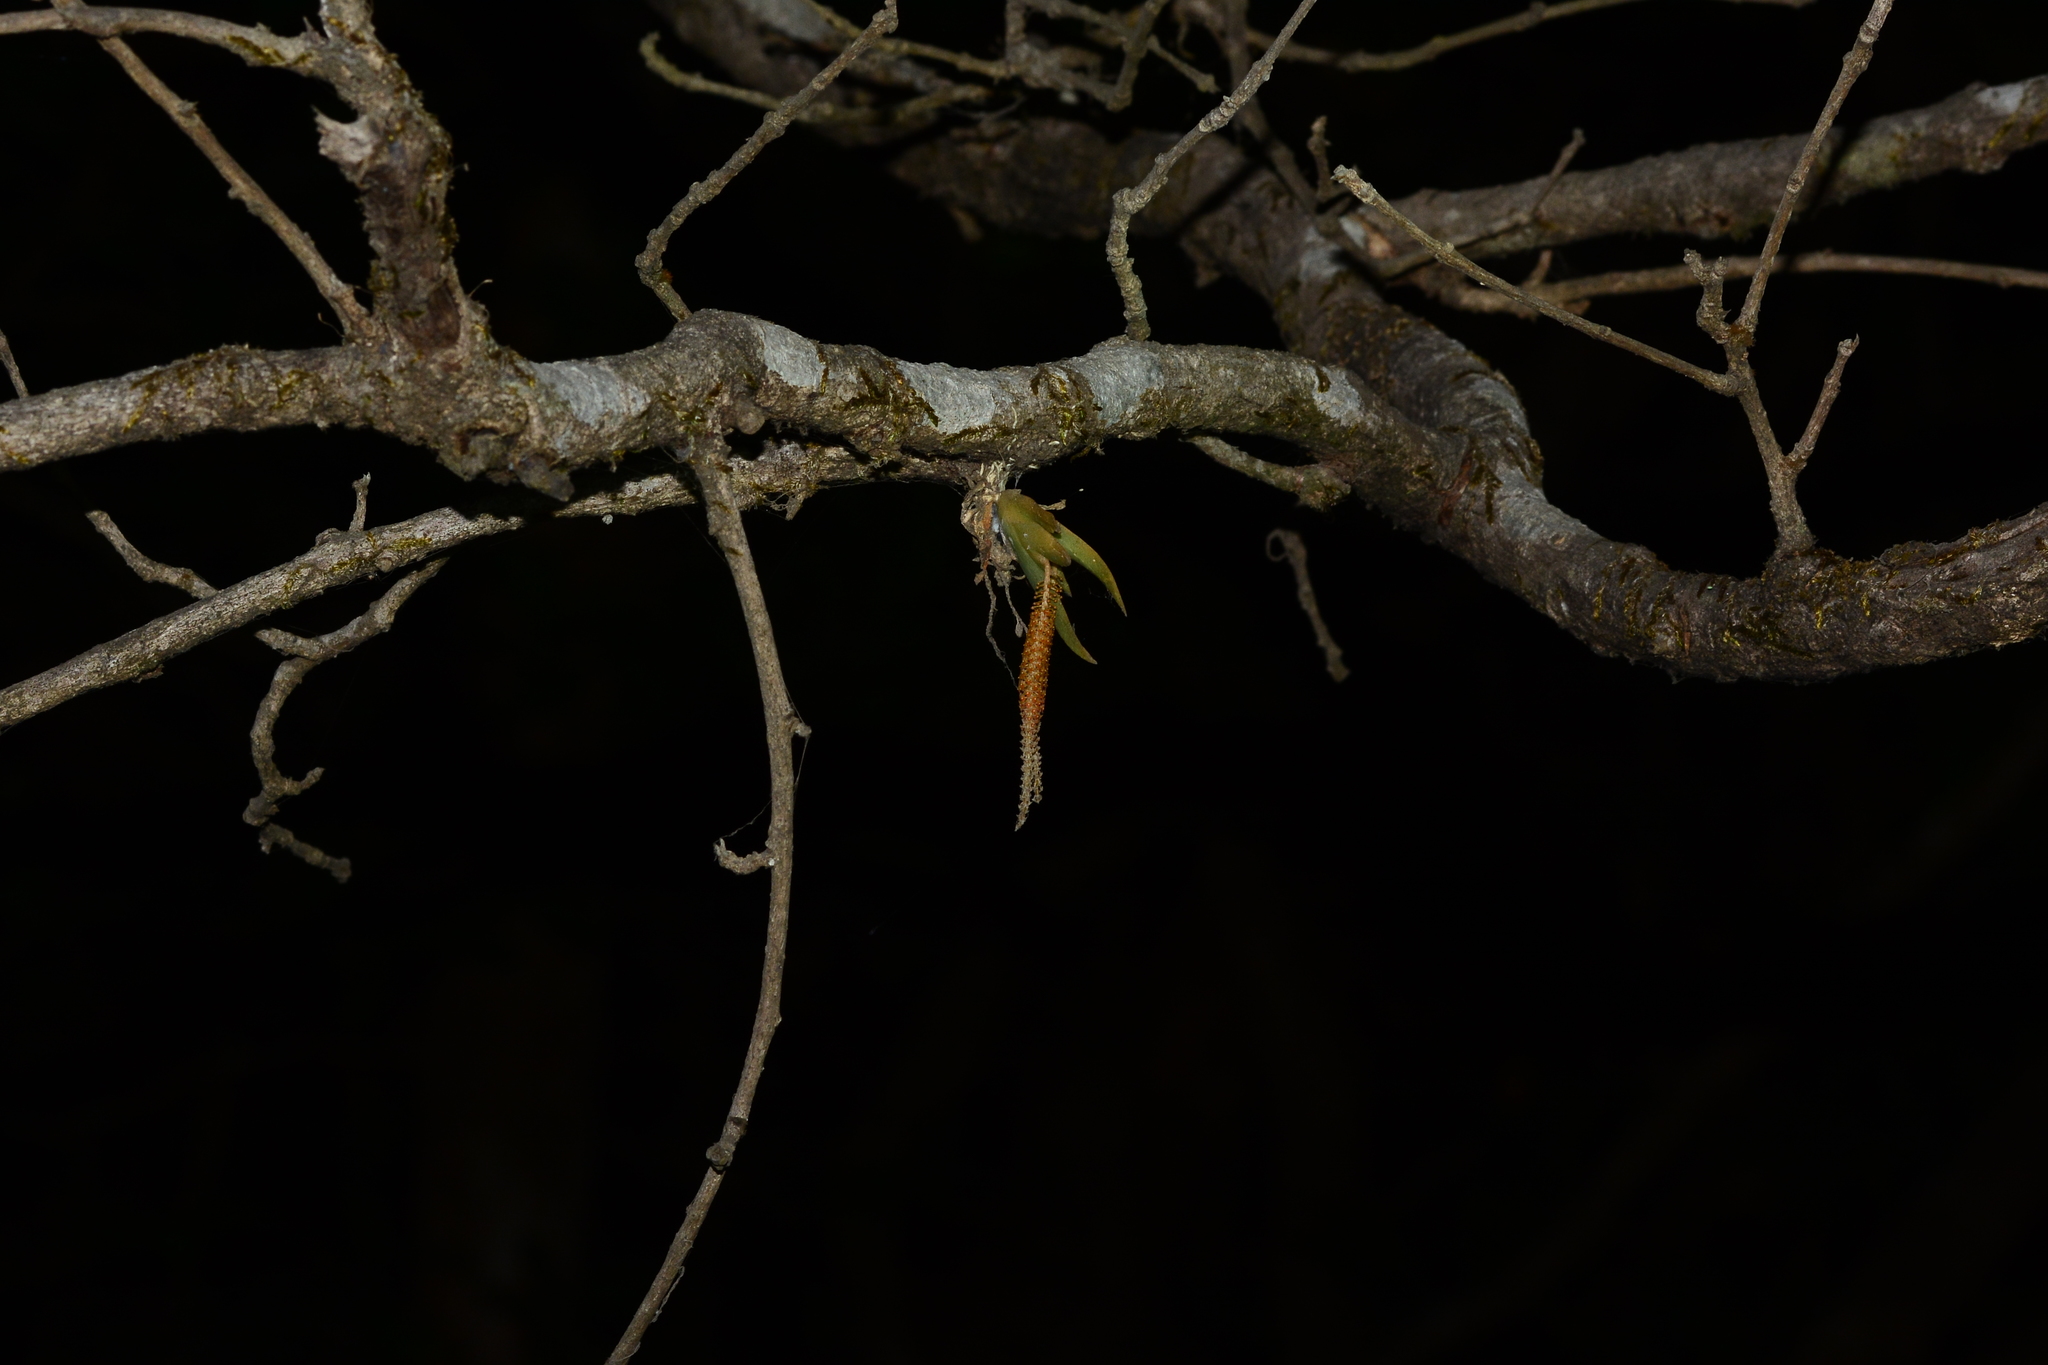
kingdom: Plantae
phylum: Tracheophyta
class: Liliopsida
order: Asparagales
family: Orchidaceae
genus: Oberonia
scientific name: Oberonia brachystachys
